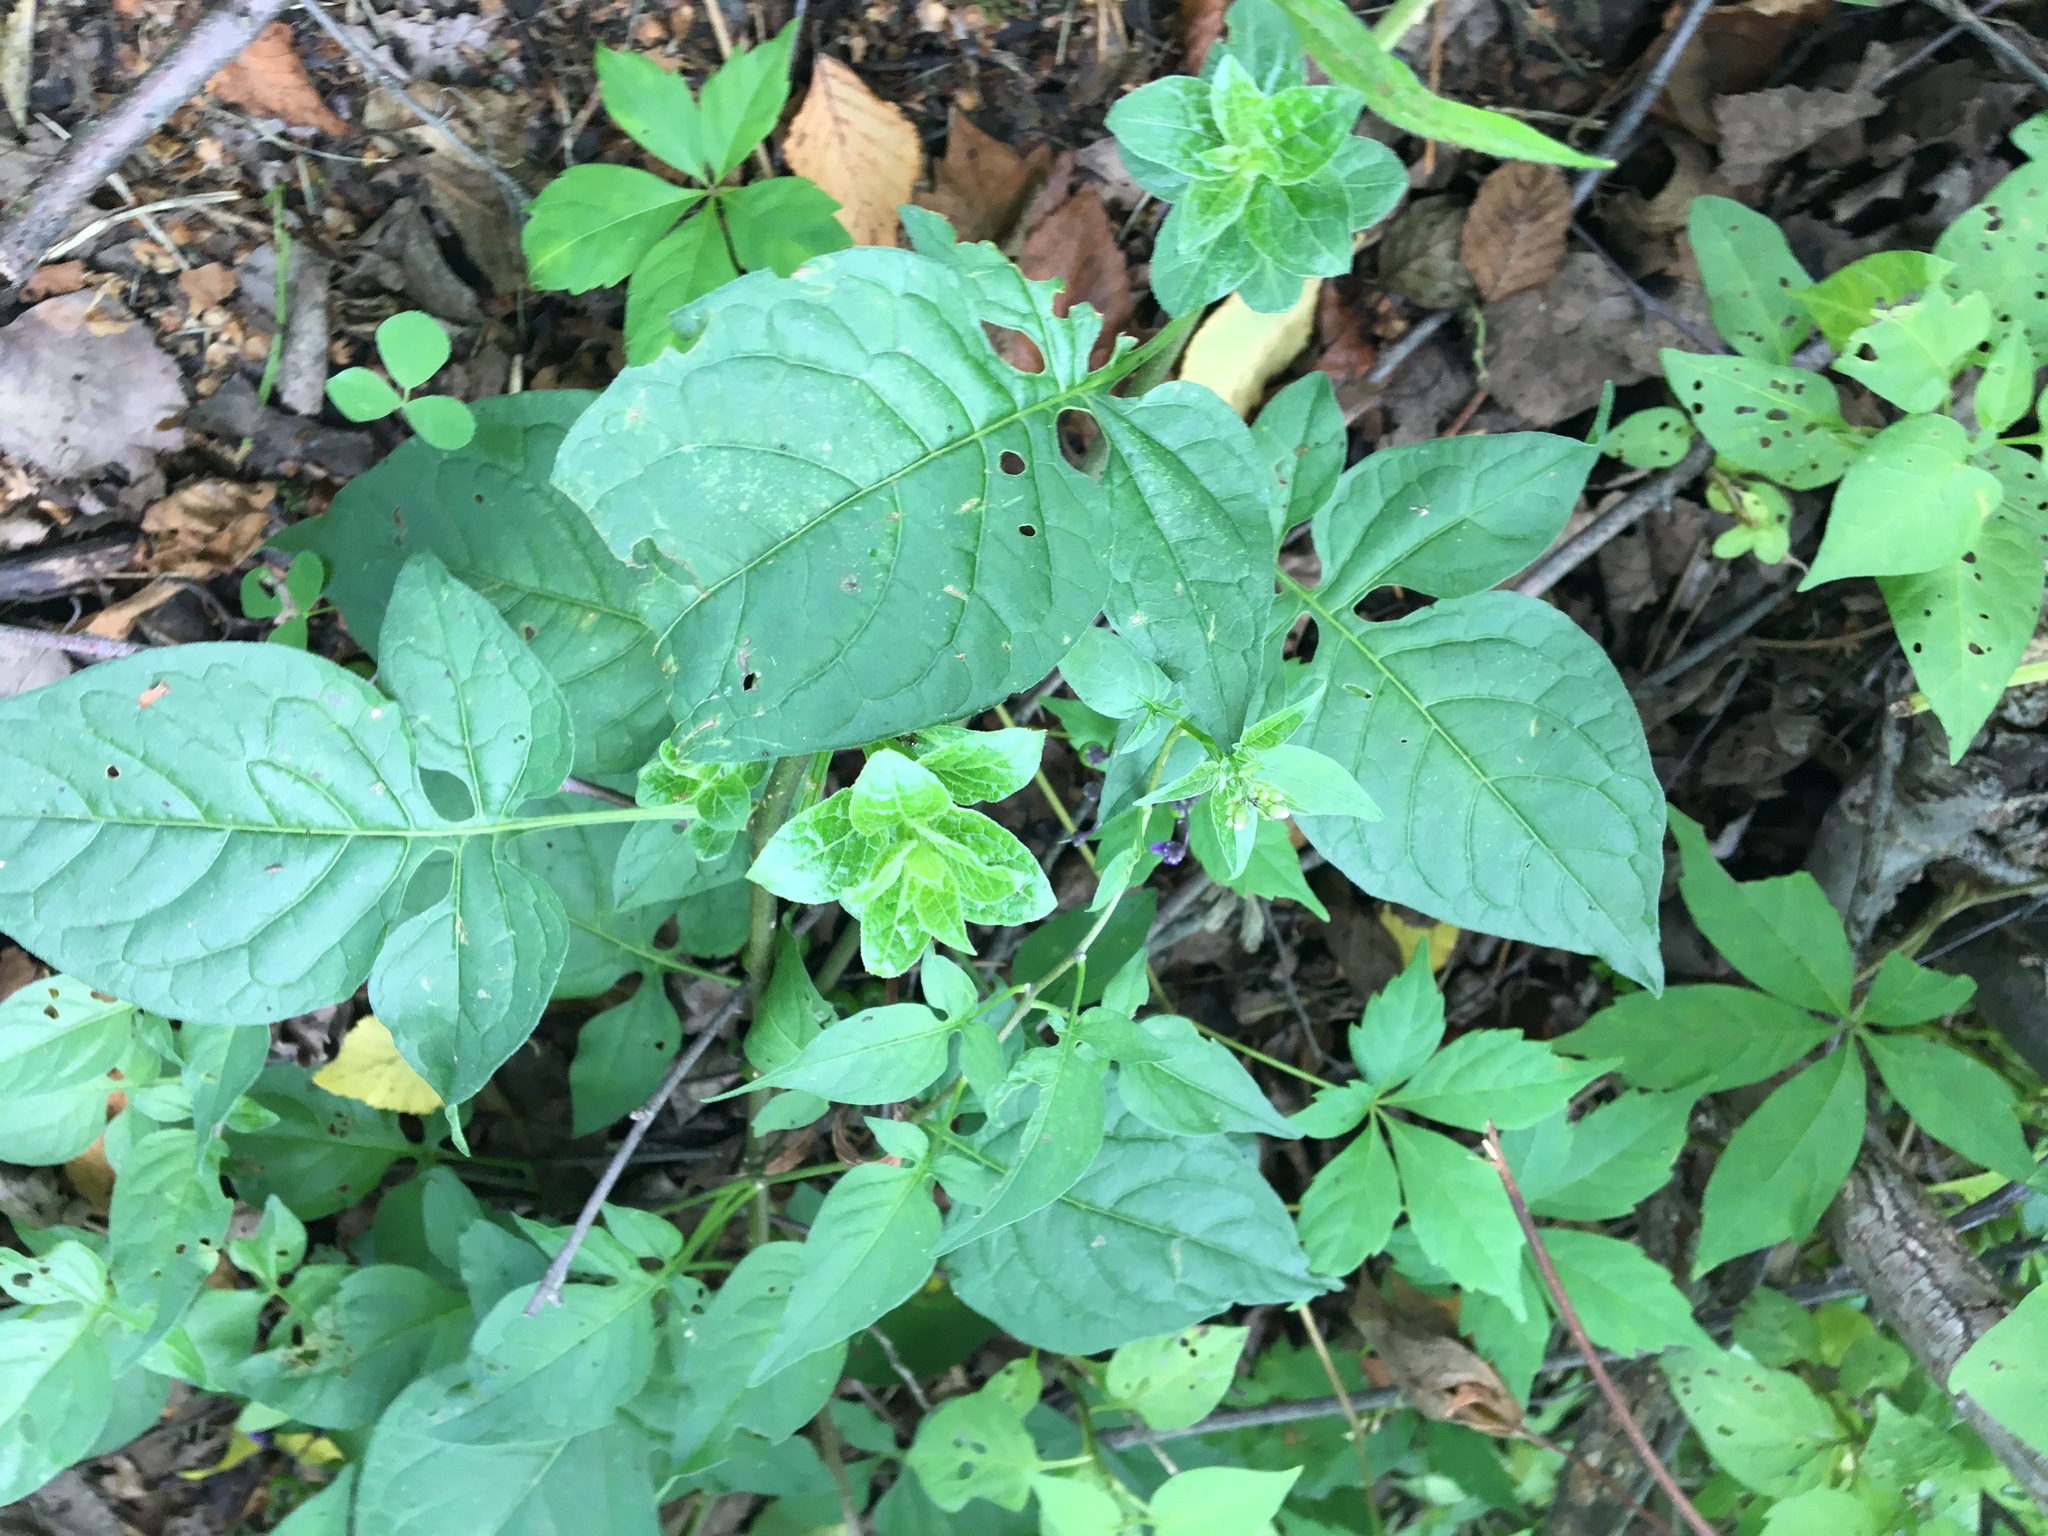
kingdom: Plantae
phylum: Tracheophyta
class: Magnoliopsida
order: Solanales
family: Solanaceae
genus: Solanum
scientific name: Solanum dulcamara
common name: Climbing nightshade
